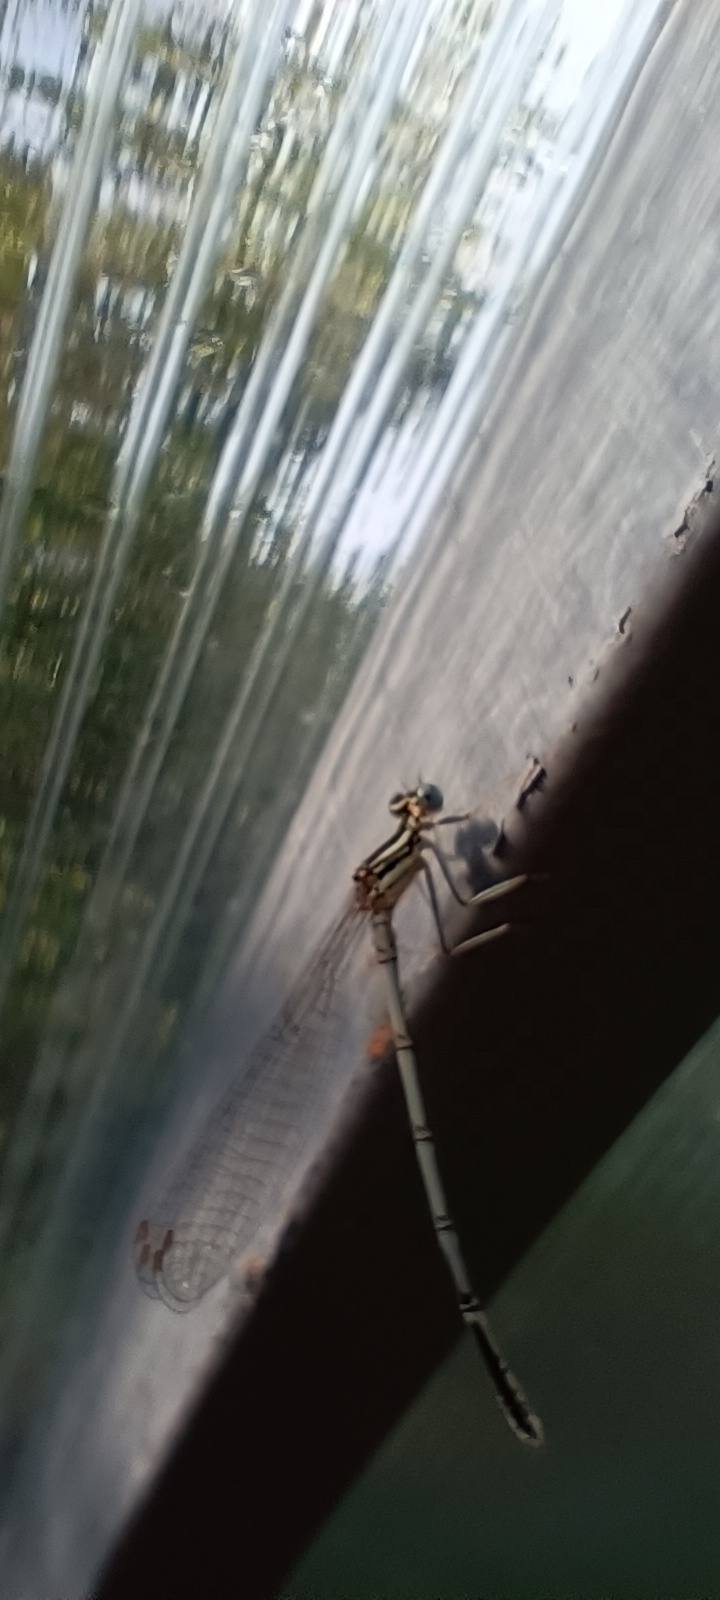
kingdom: Animalia
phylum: Arthropoda
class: Insecta
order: Odonata
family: Platycnemididae
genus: Platycnemis
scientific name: Platycnemis pennipes
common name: White-legged damselfly
